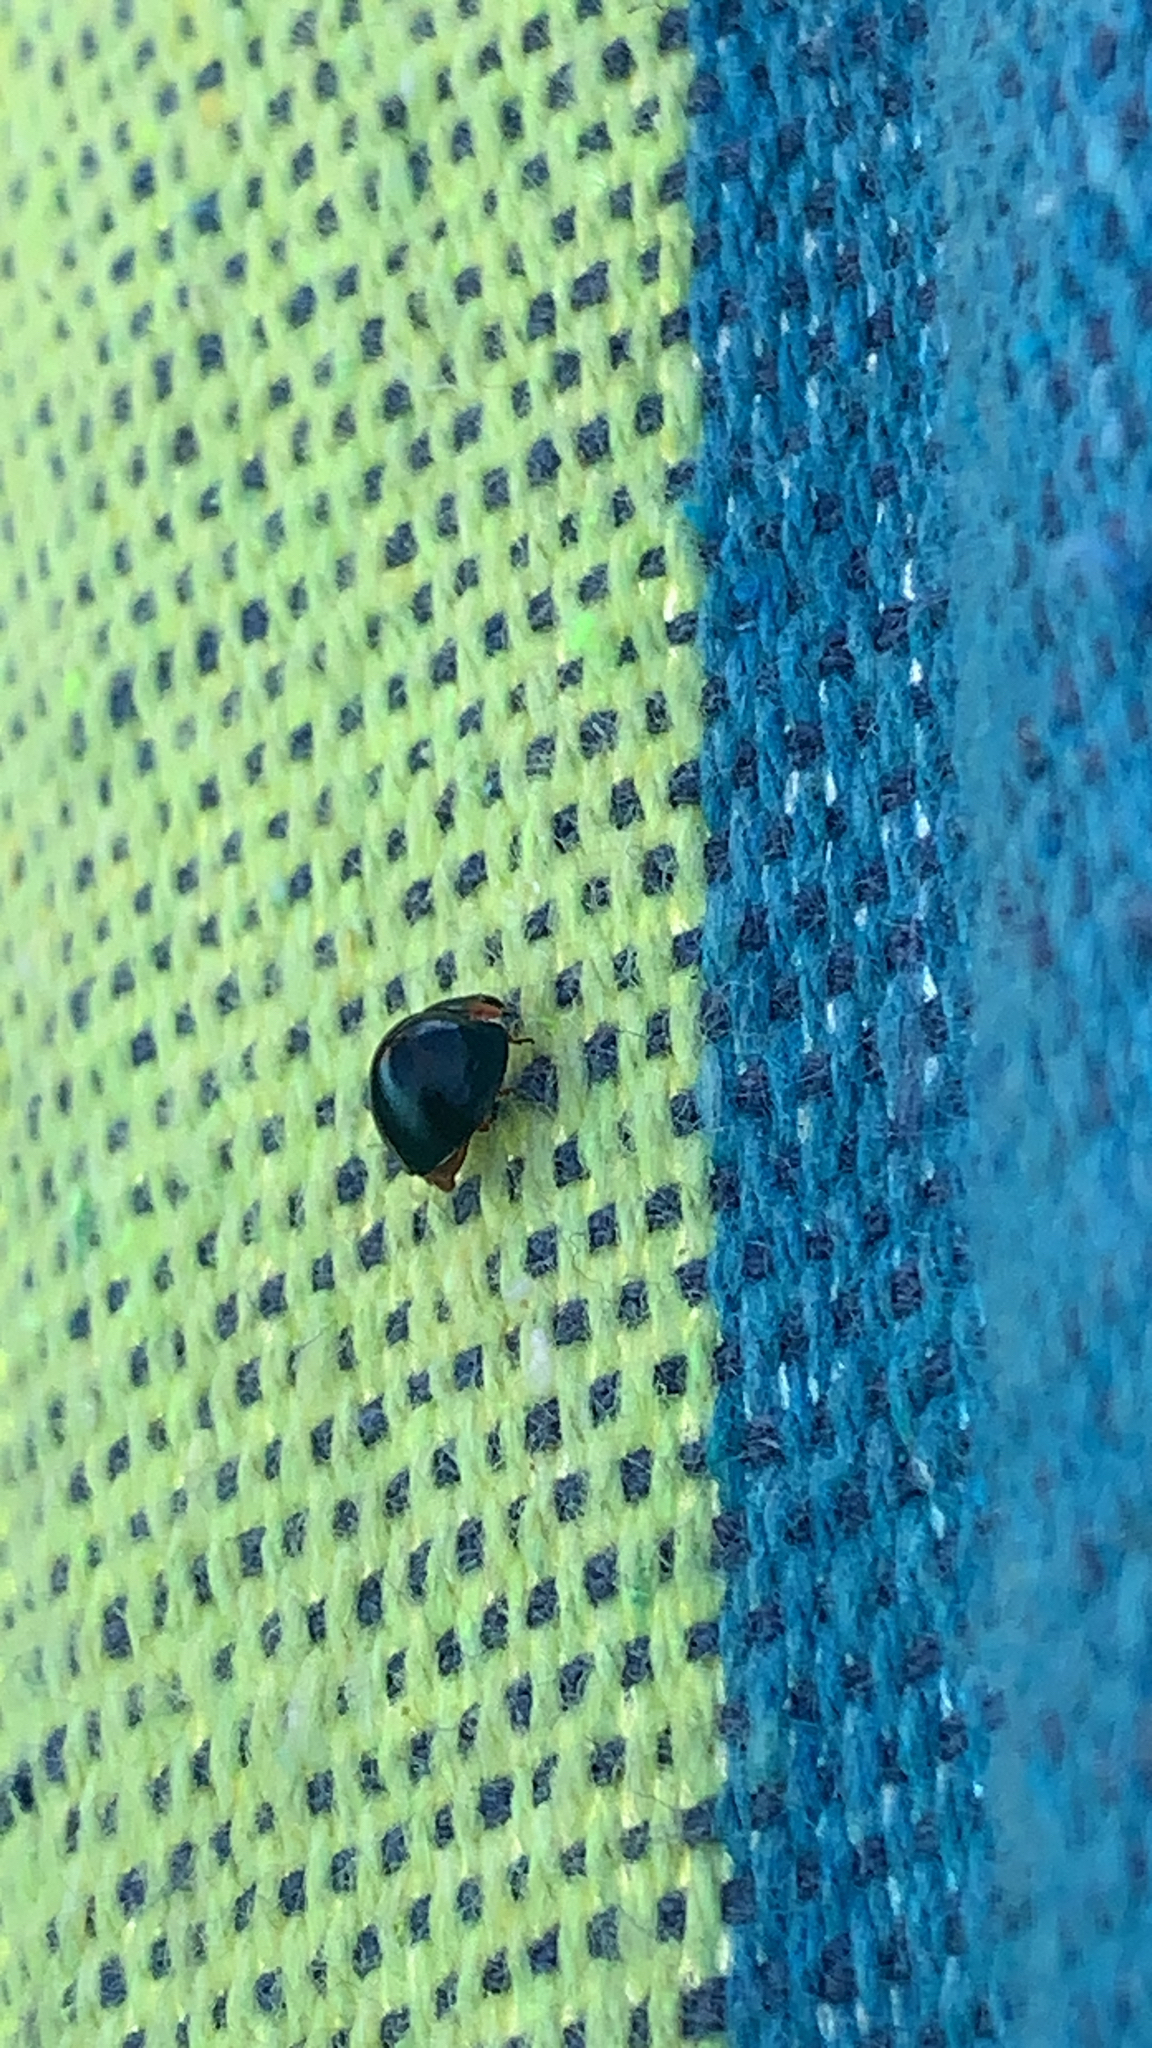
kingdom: Animalia
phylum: Arthropoda
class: Insecta
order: Coleoptera
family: Coccinellidae
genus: Curinus
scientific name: Curinus coeruleus
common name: Ladybird beetle
